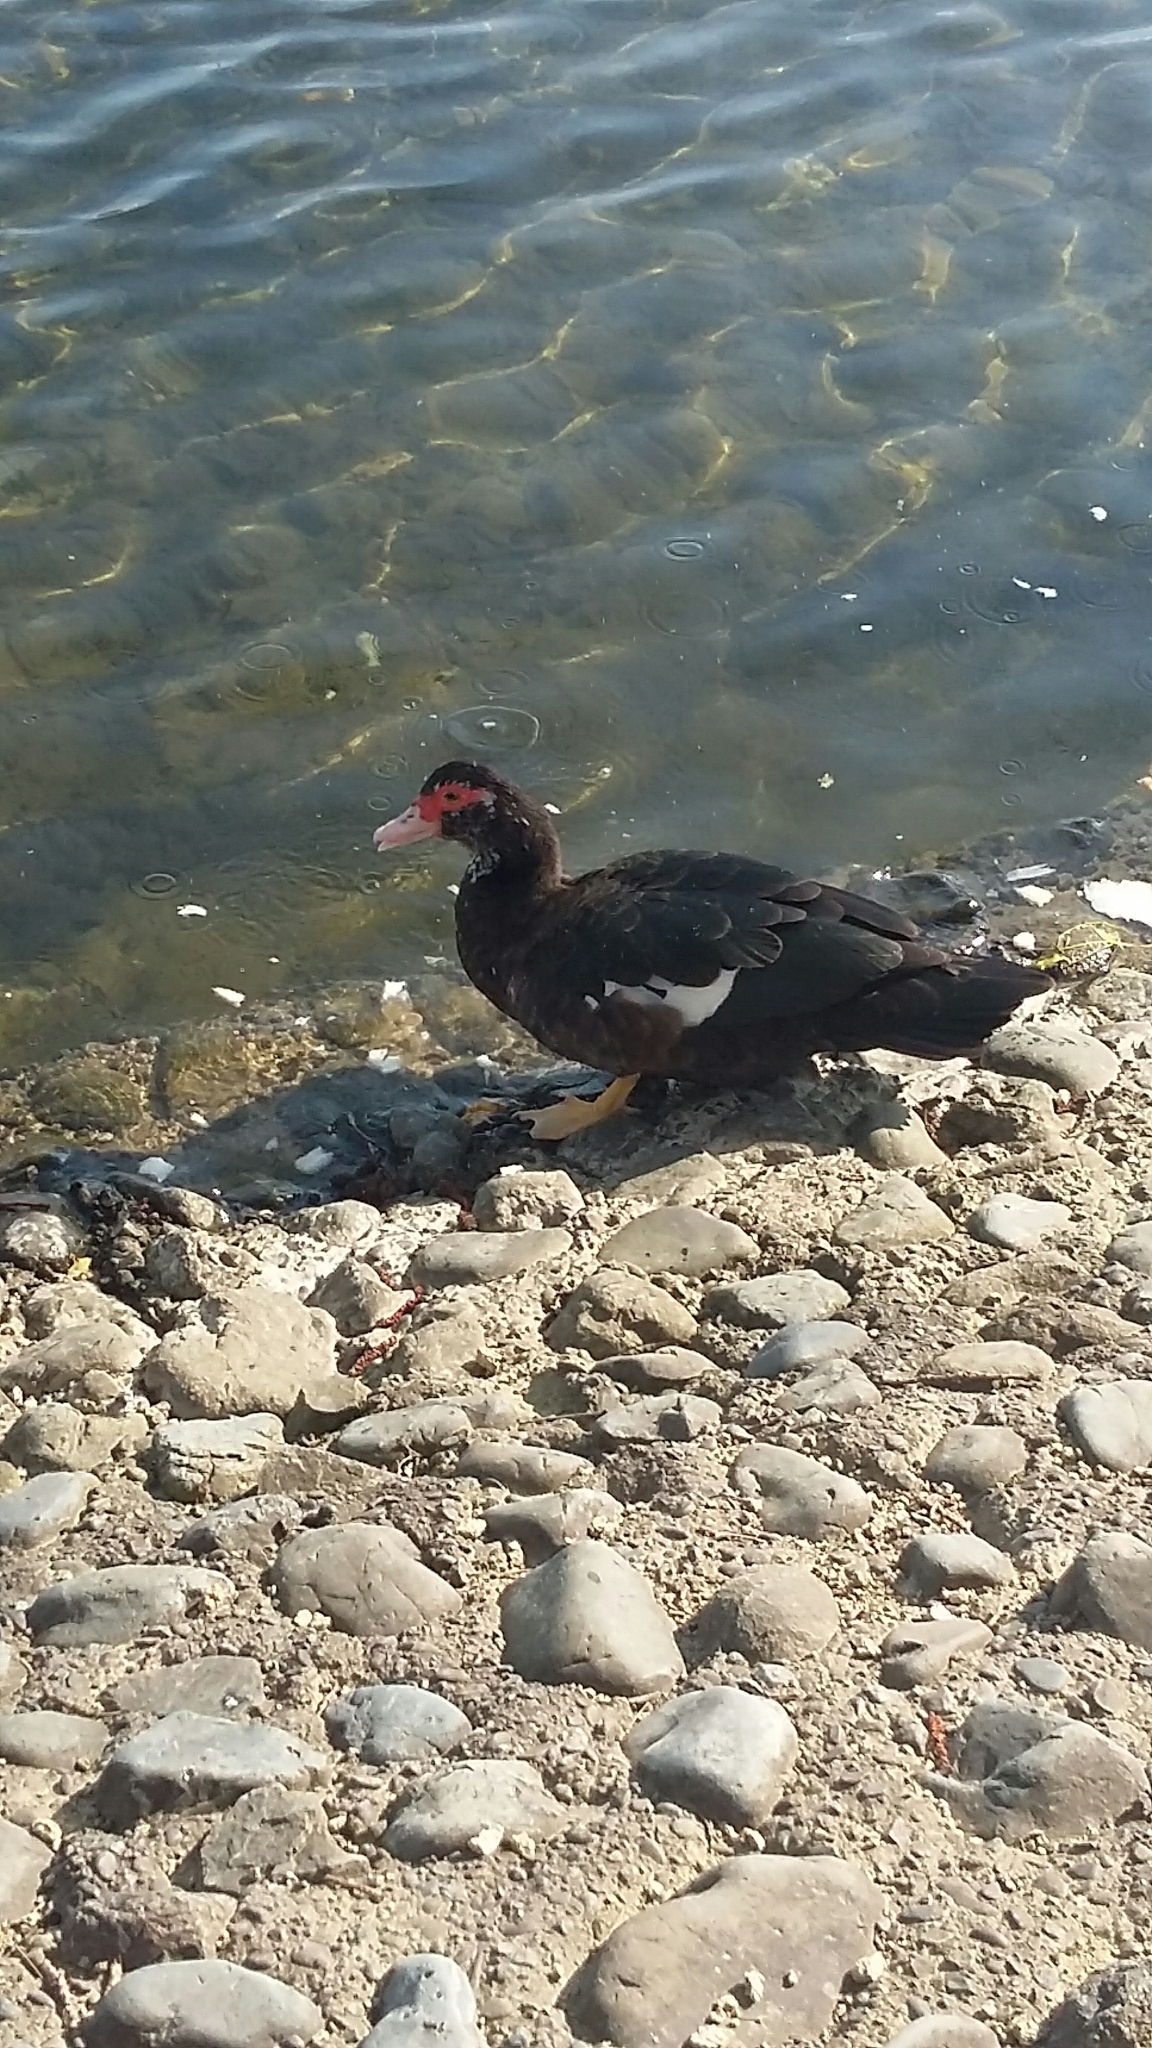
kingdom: Animalia
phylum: Chordata
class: Aves
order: Anseriformes
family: Anatidae
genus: Cairina
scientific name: Cairina moschata
